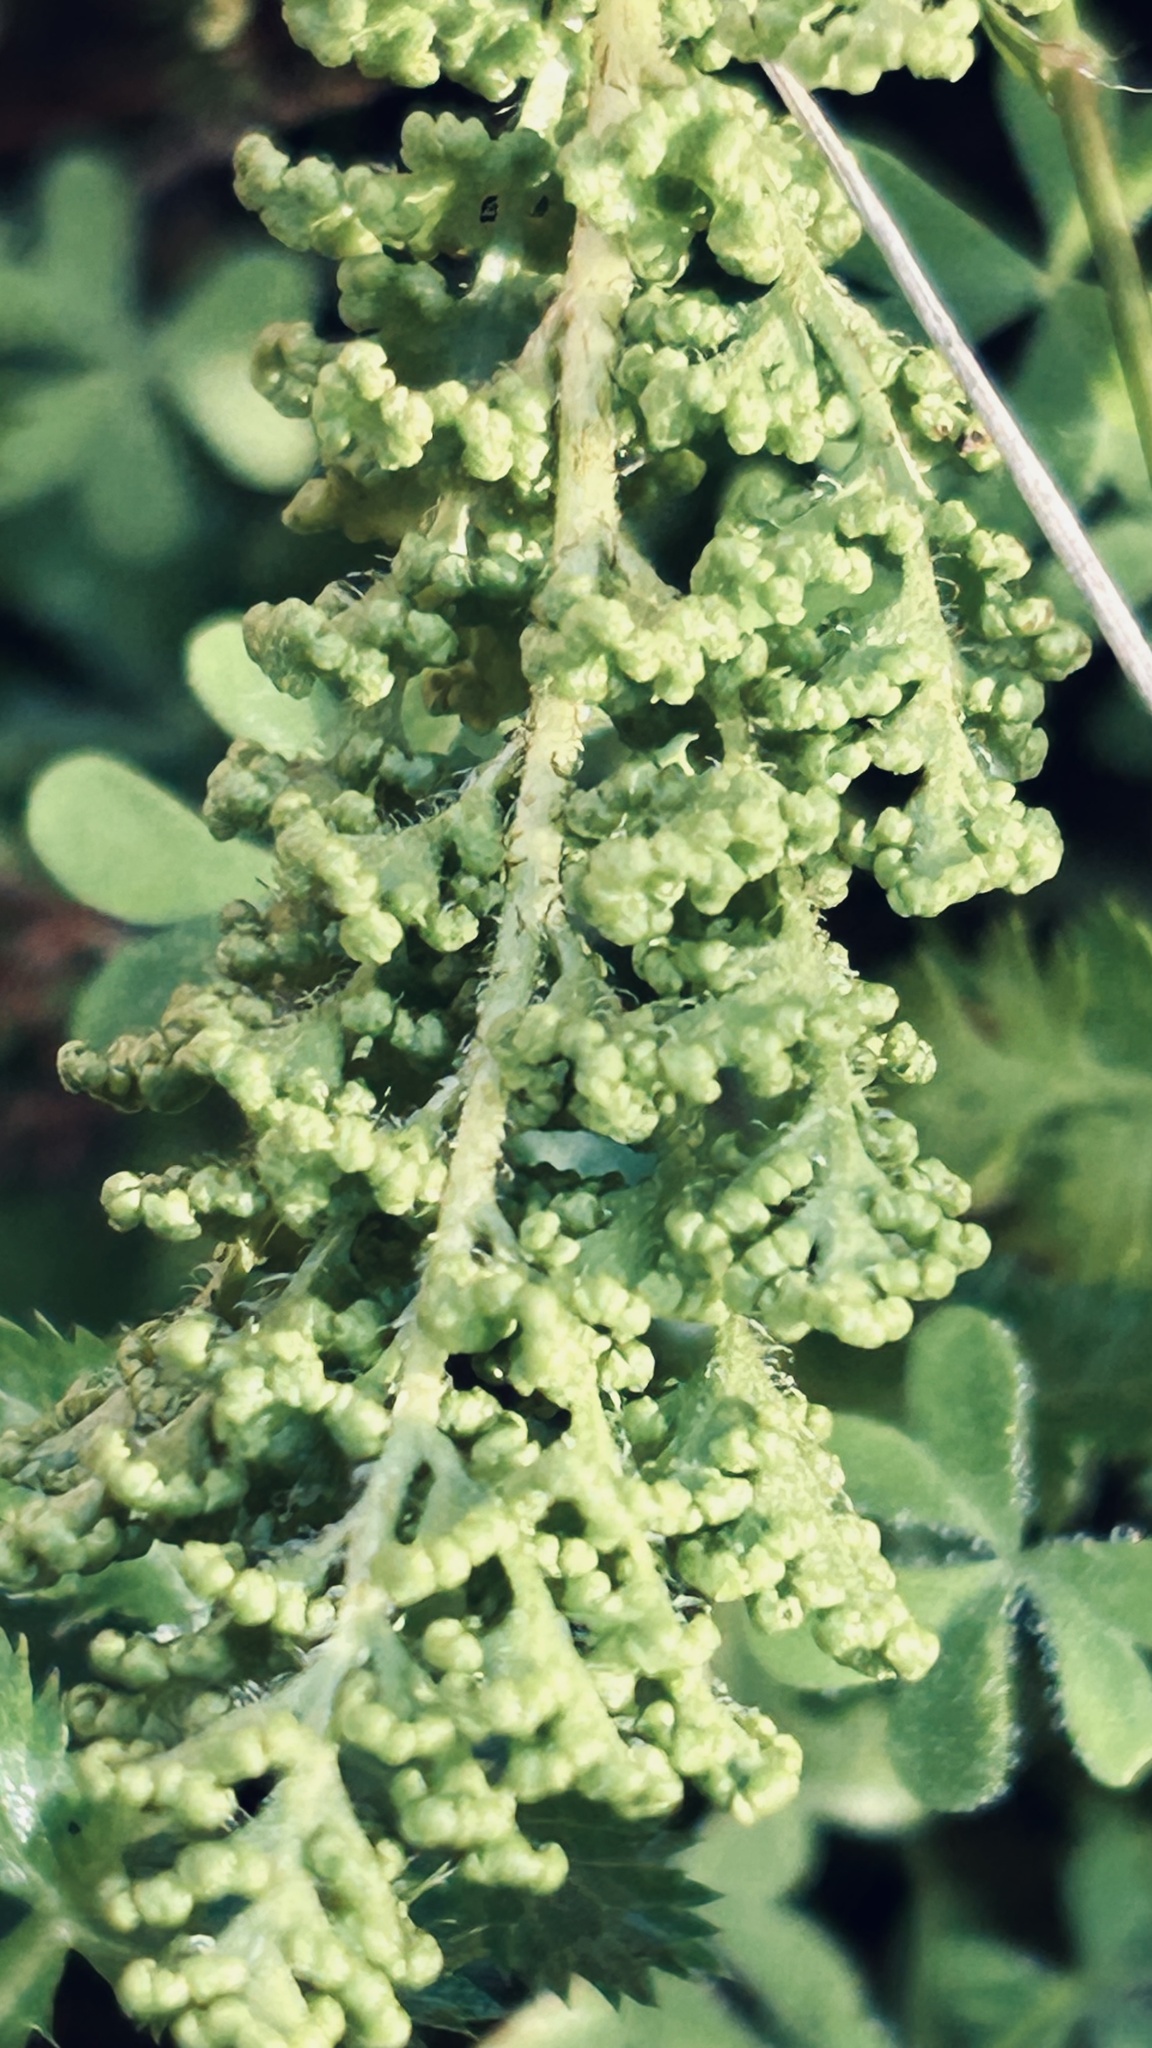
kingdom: Plantae
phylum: Tracheophyta
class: Polypodiopsida
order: Schizaeales
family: Anemiaceae
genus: Anemia
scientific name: Anemia caffrorum
